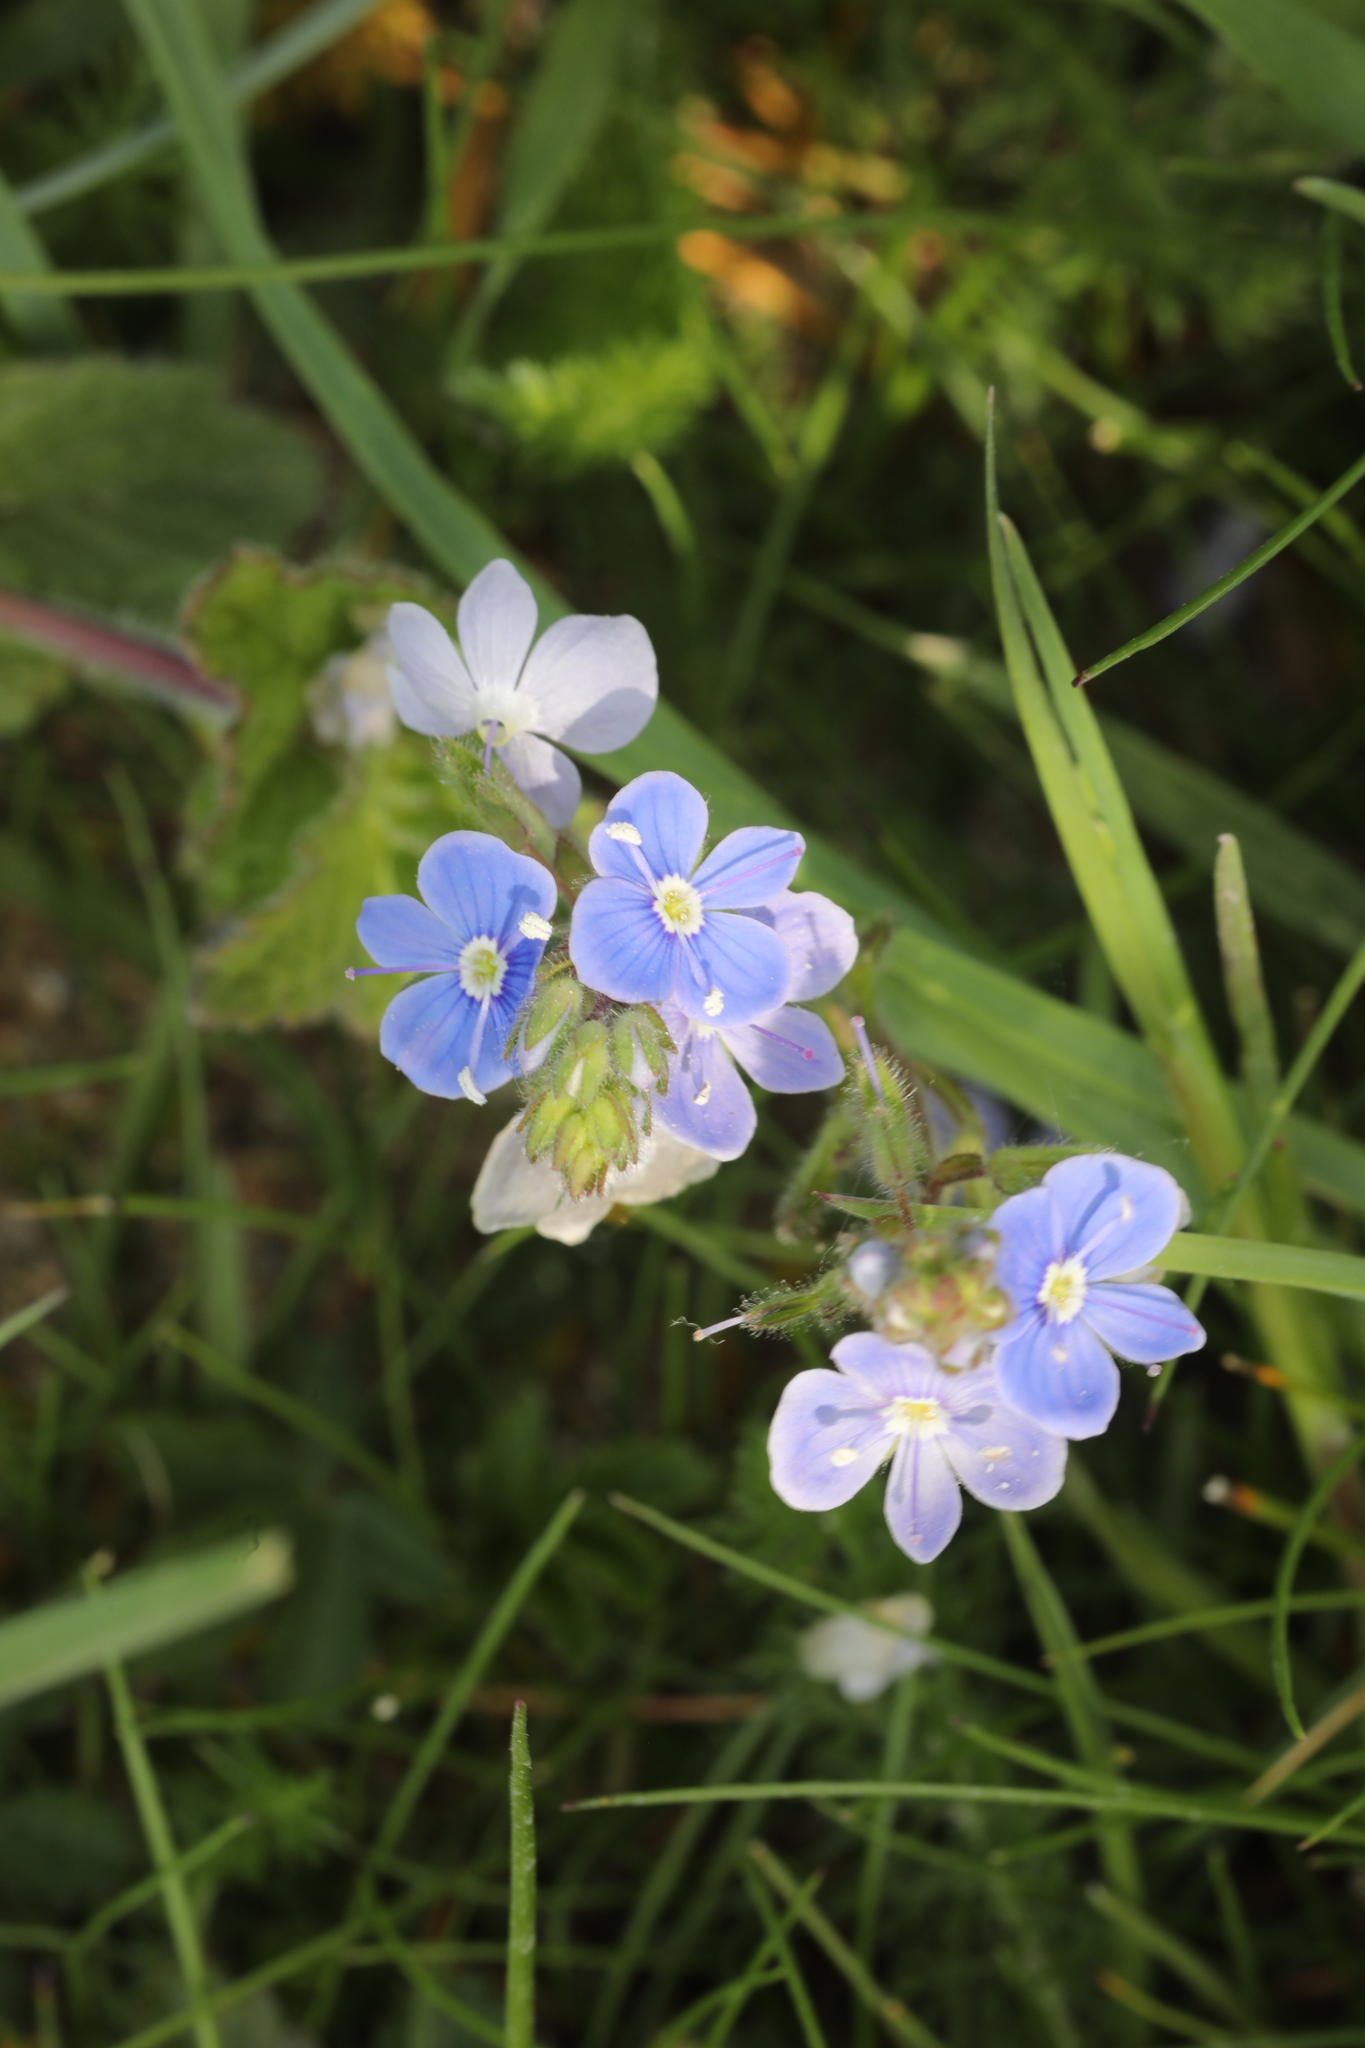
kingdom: Plantae
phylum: Tracheophyta
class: Magnoliopsida
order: Lamiales
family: Plantaginaceae
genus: Veronica
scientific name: Veronica chamaedrys
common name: Germander speedwell
